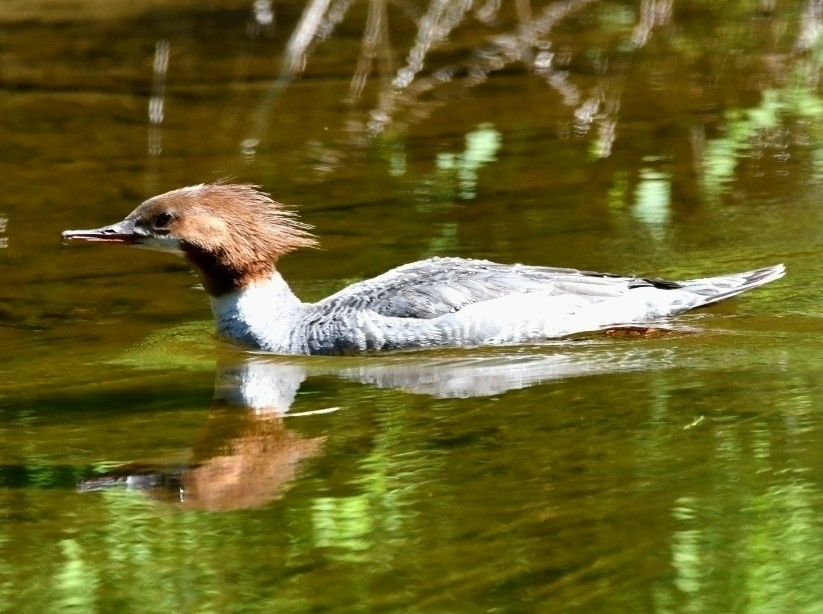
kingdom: Animalia
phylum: Chordata
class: Aves
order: Anseriformes
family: Anatidae
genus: Mergus
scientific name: Mergus merganser
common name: Common merganser
